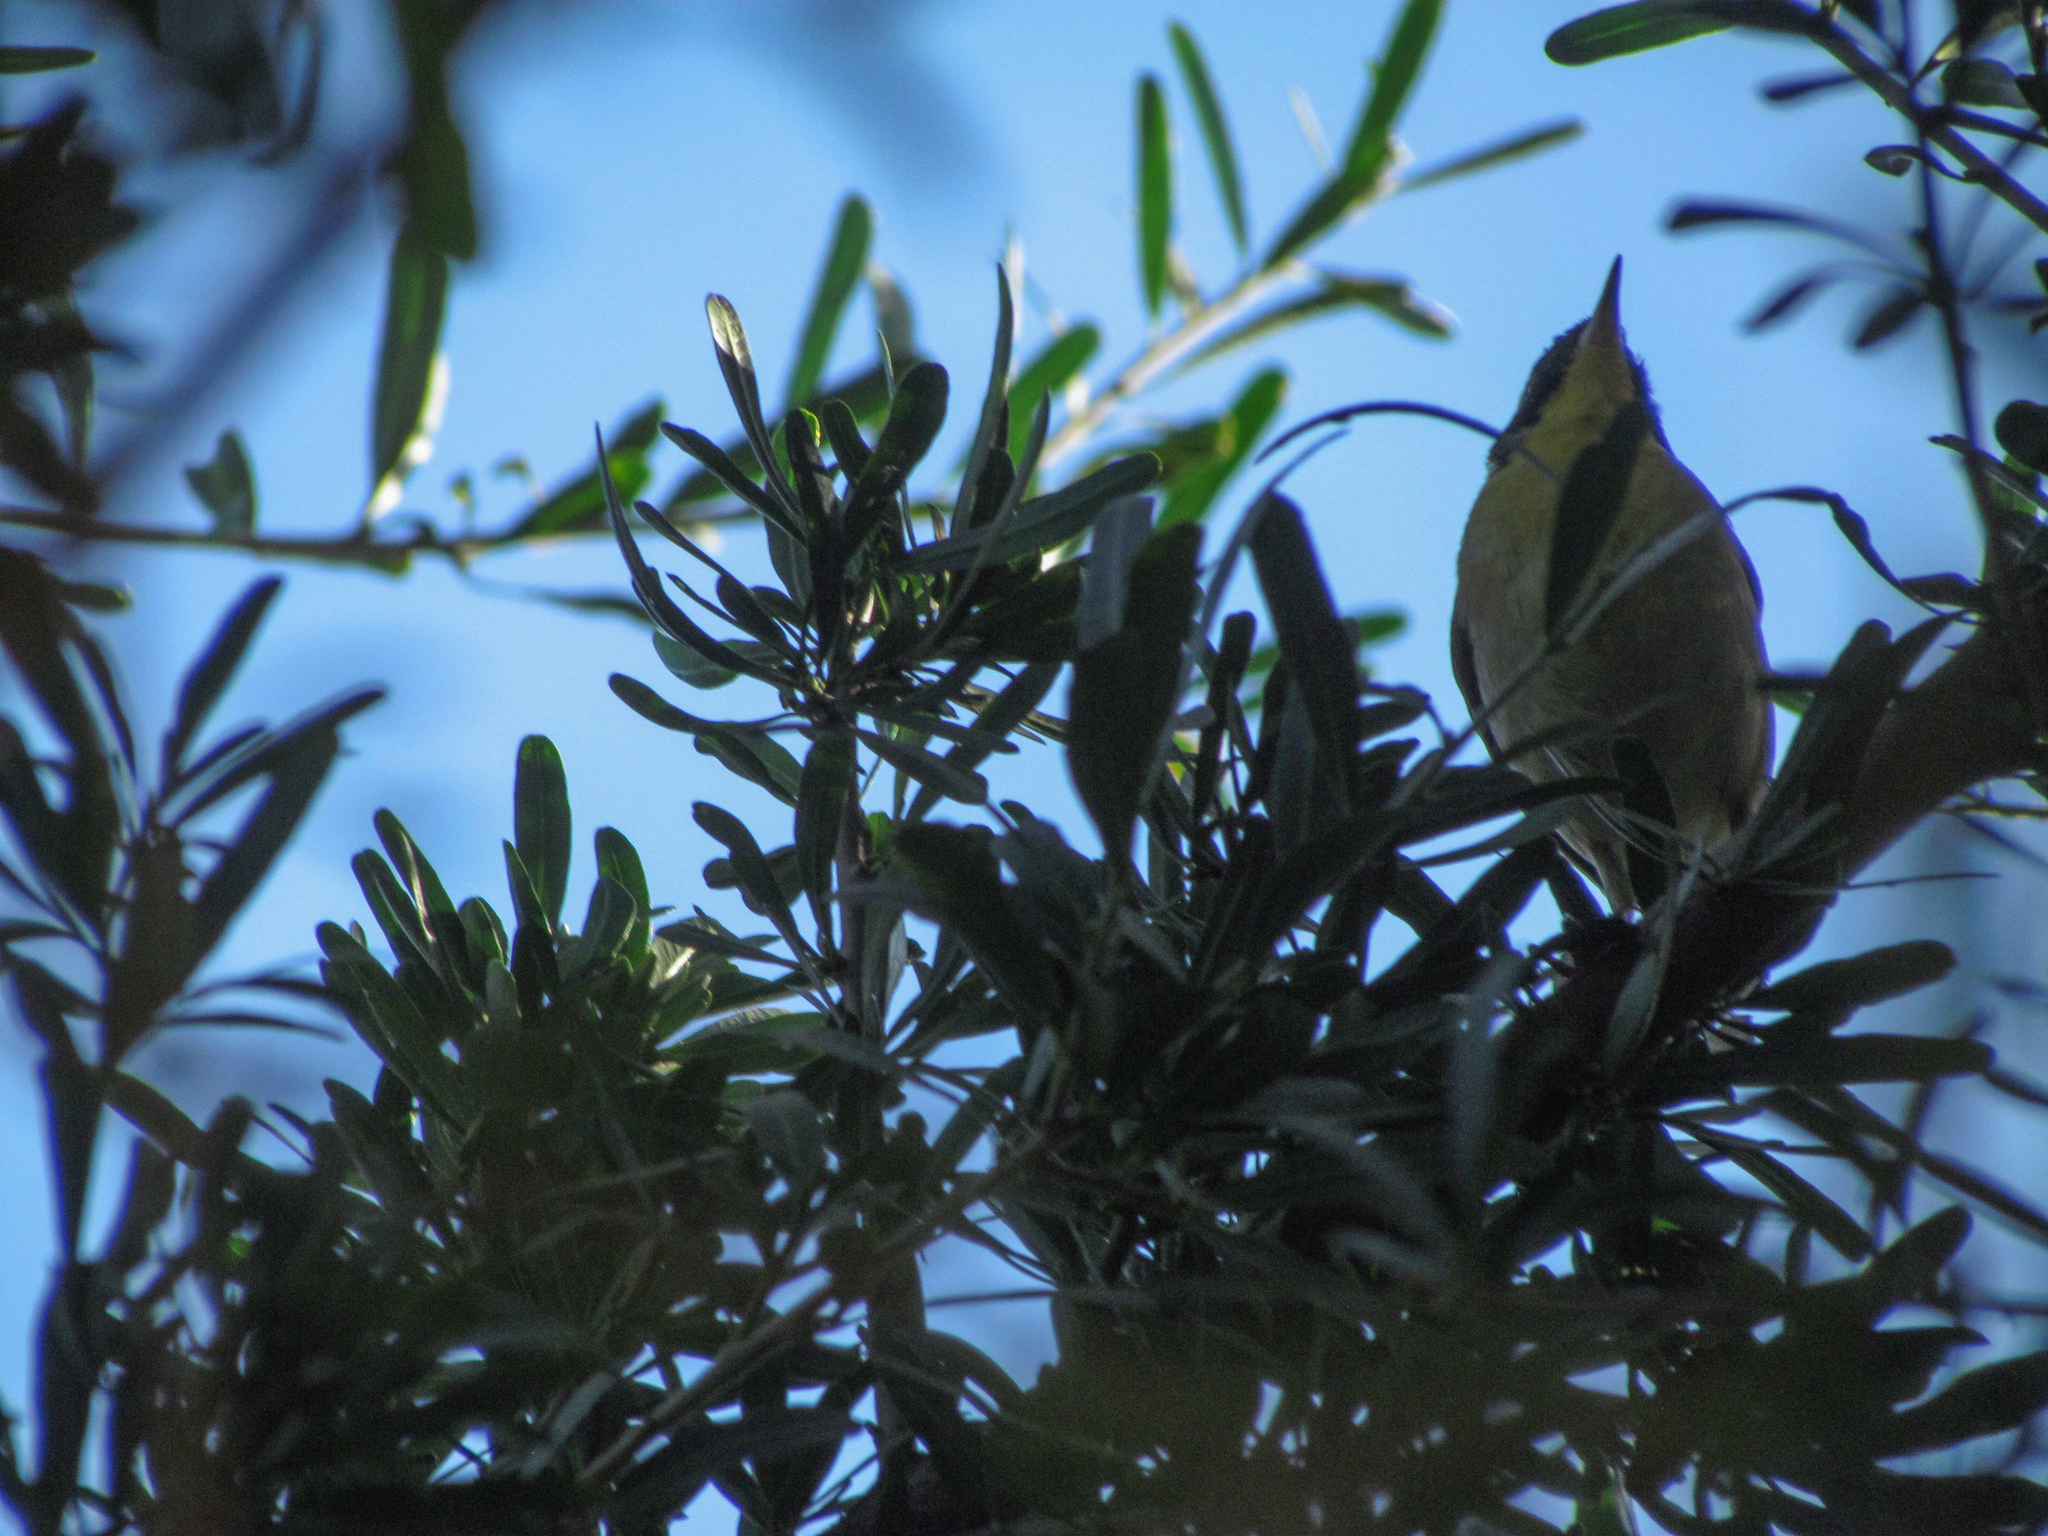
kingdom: Animalia
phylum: Chordata
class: Aves
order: Passeriformes
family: Parulidae
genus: Geothlypis
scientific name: Geothlypis trichas
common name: Common yellowthroat
